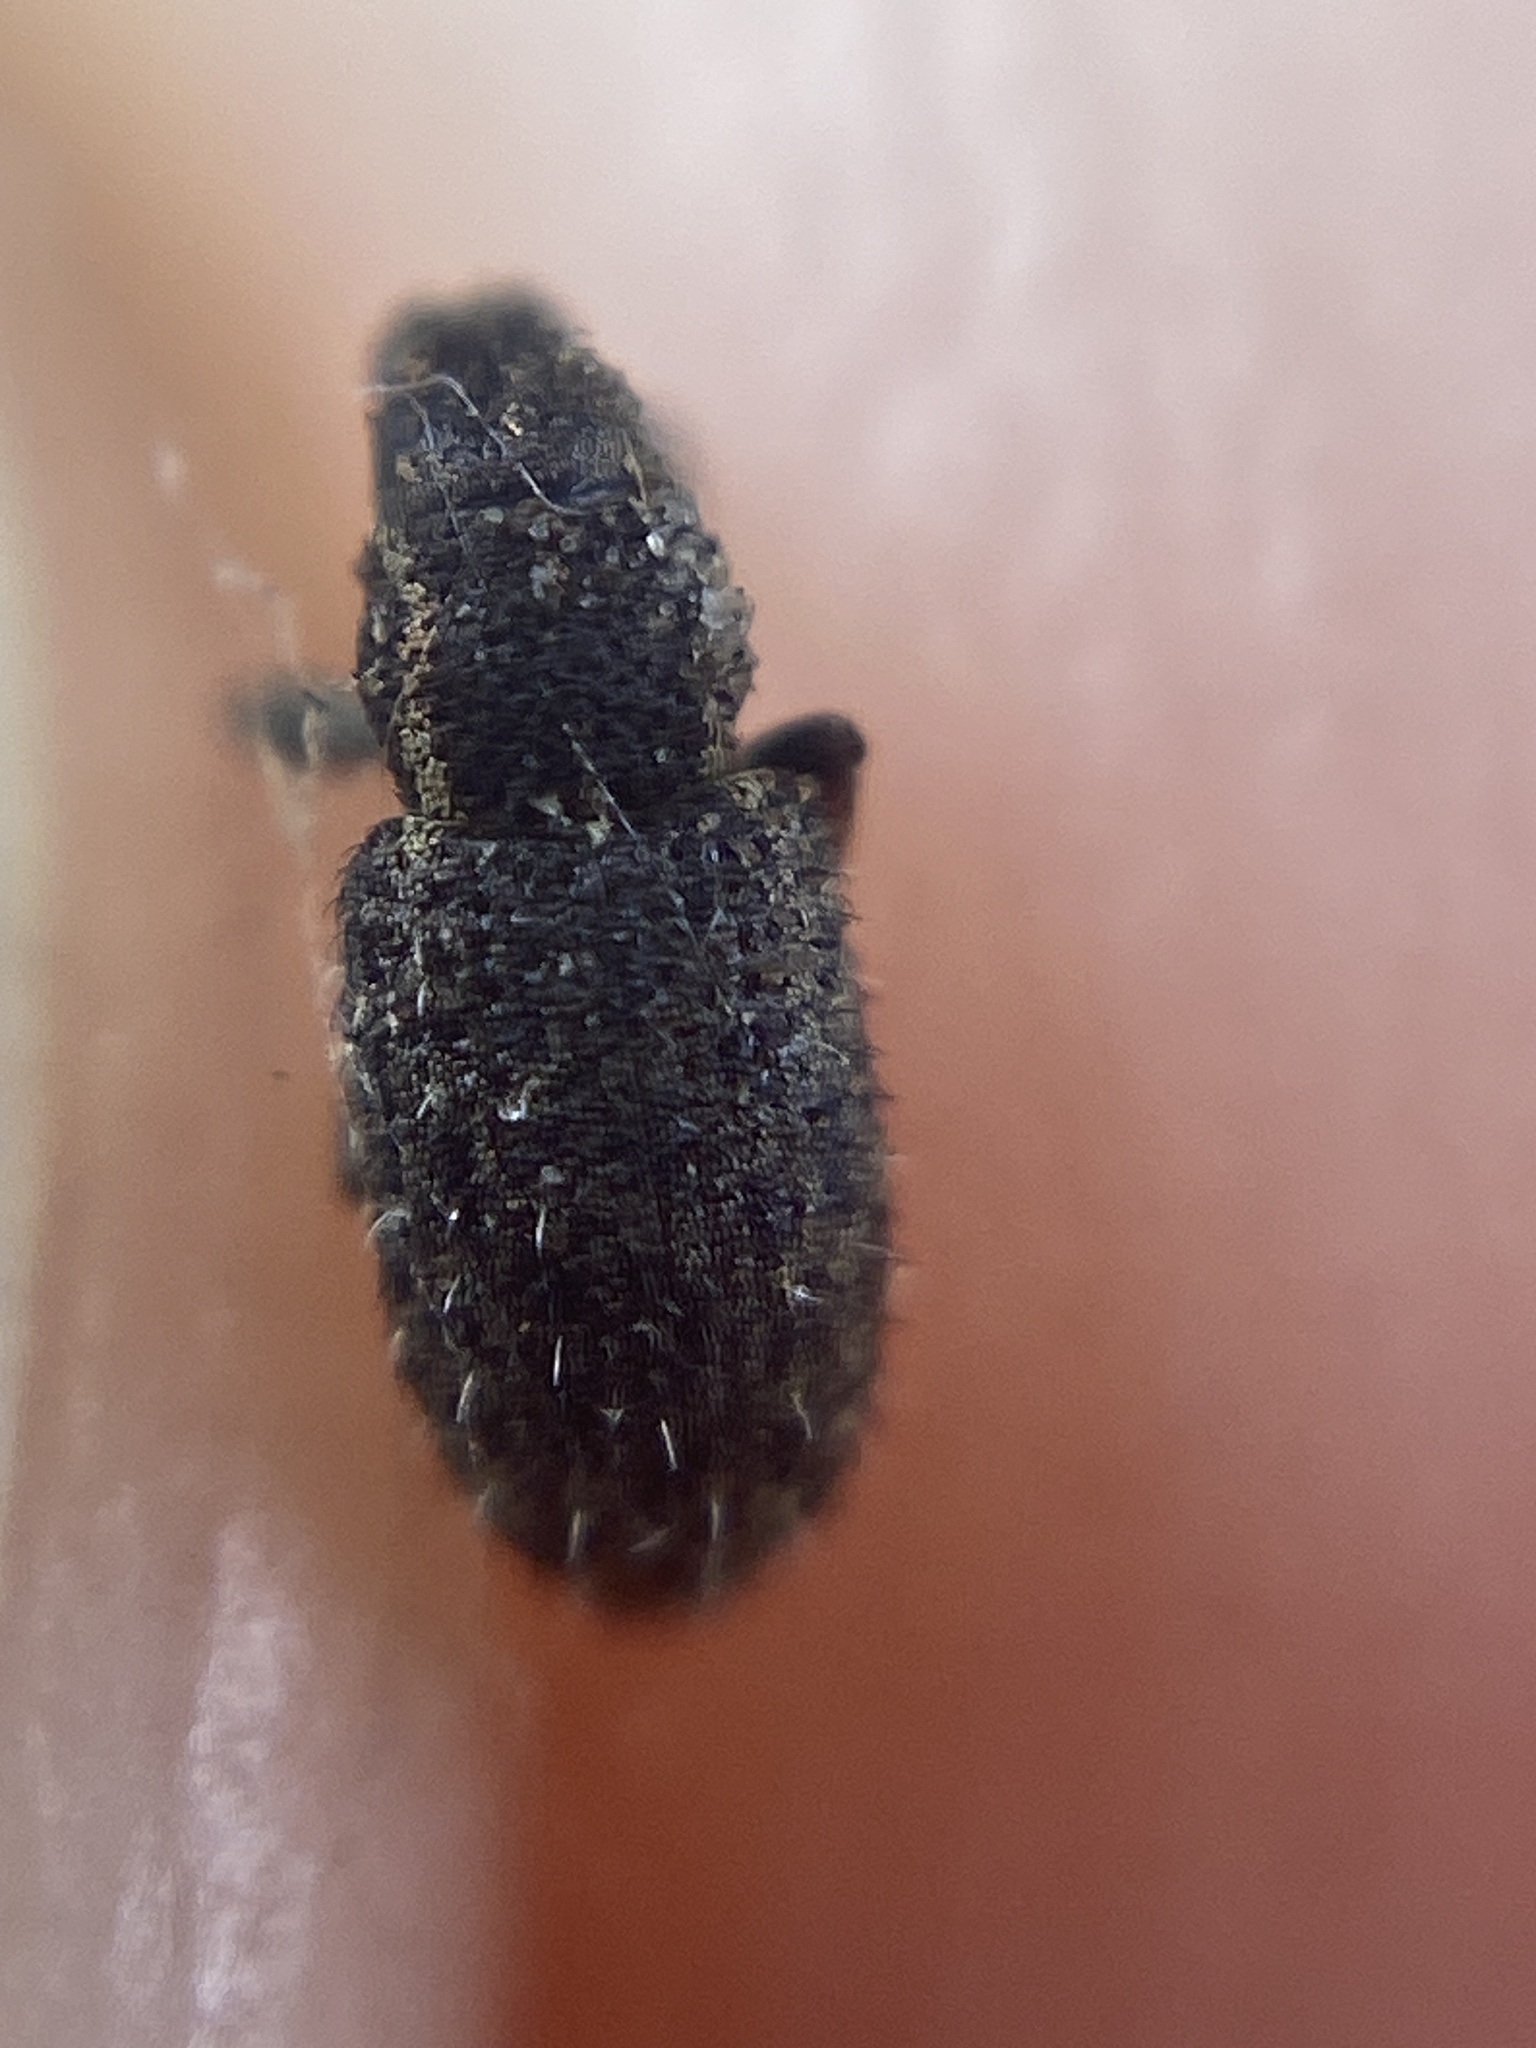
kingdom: Animalia
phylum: Arthropoda
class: Insecta
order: Coleoptera
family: Curculionidae
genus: Sitona
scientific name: Sitona hispidulus
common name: Clover weevil
